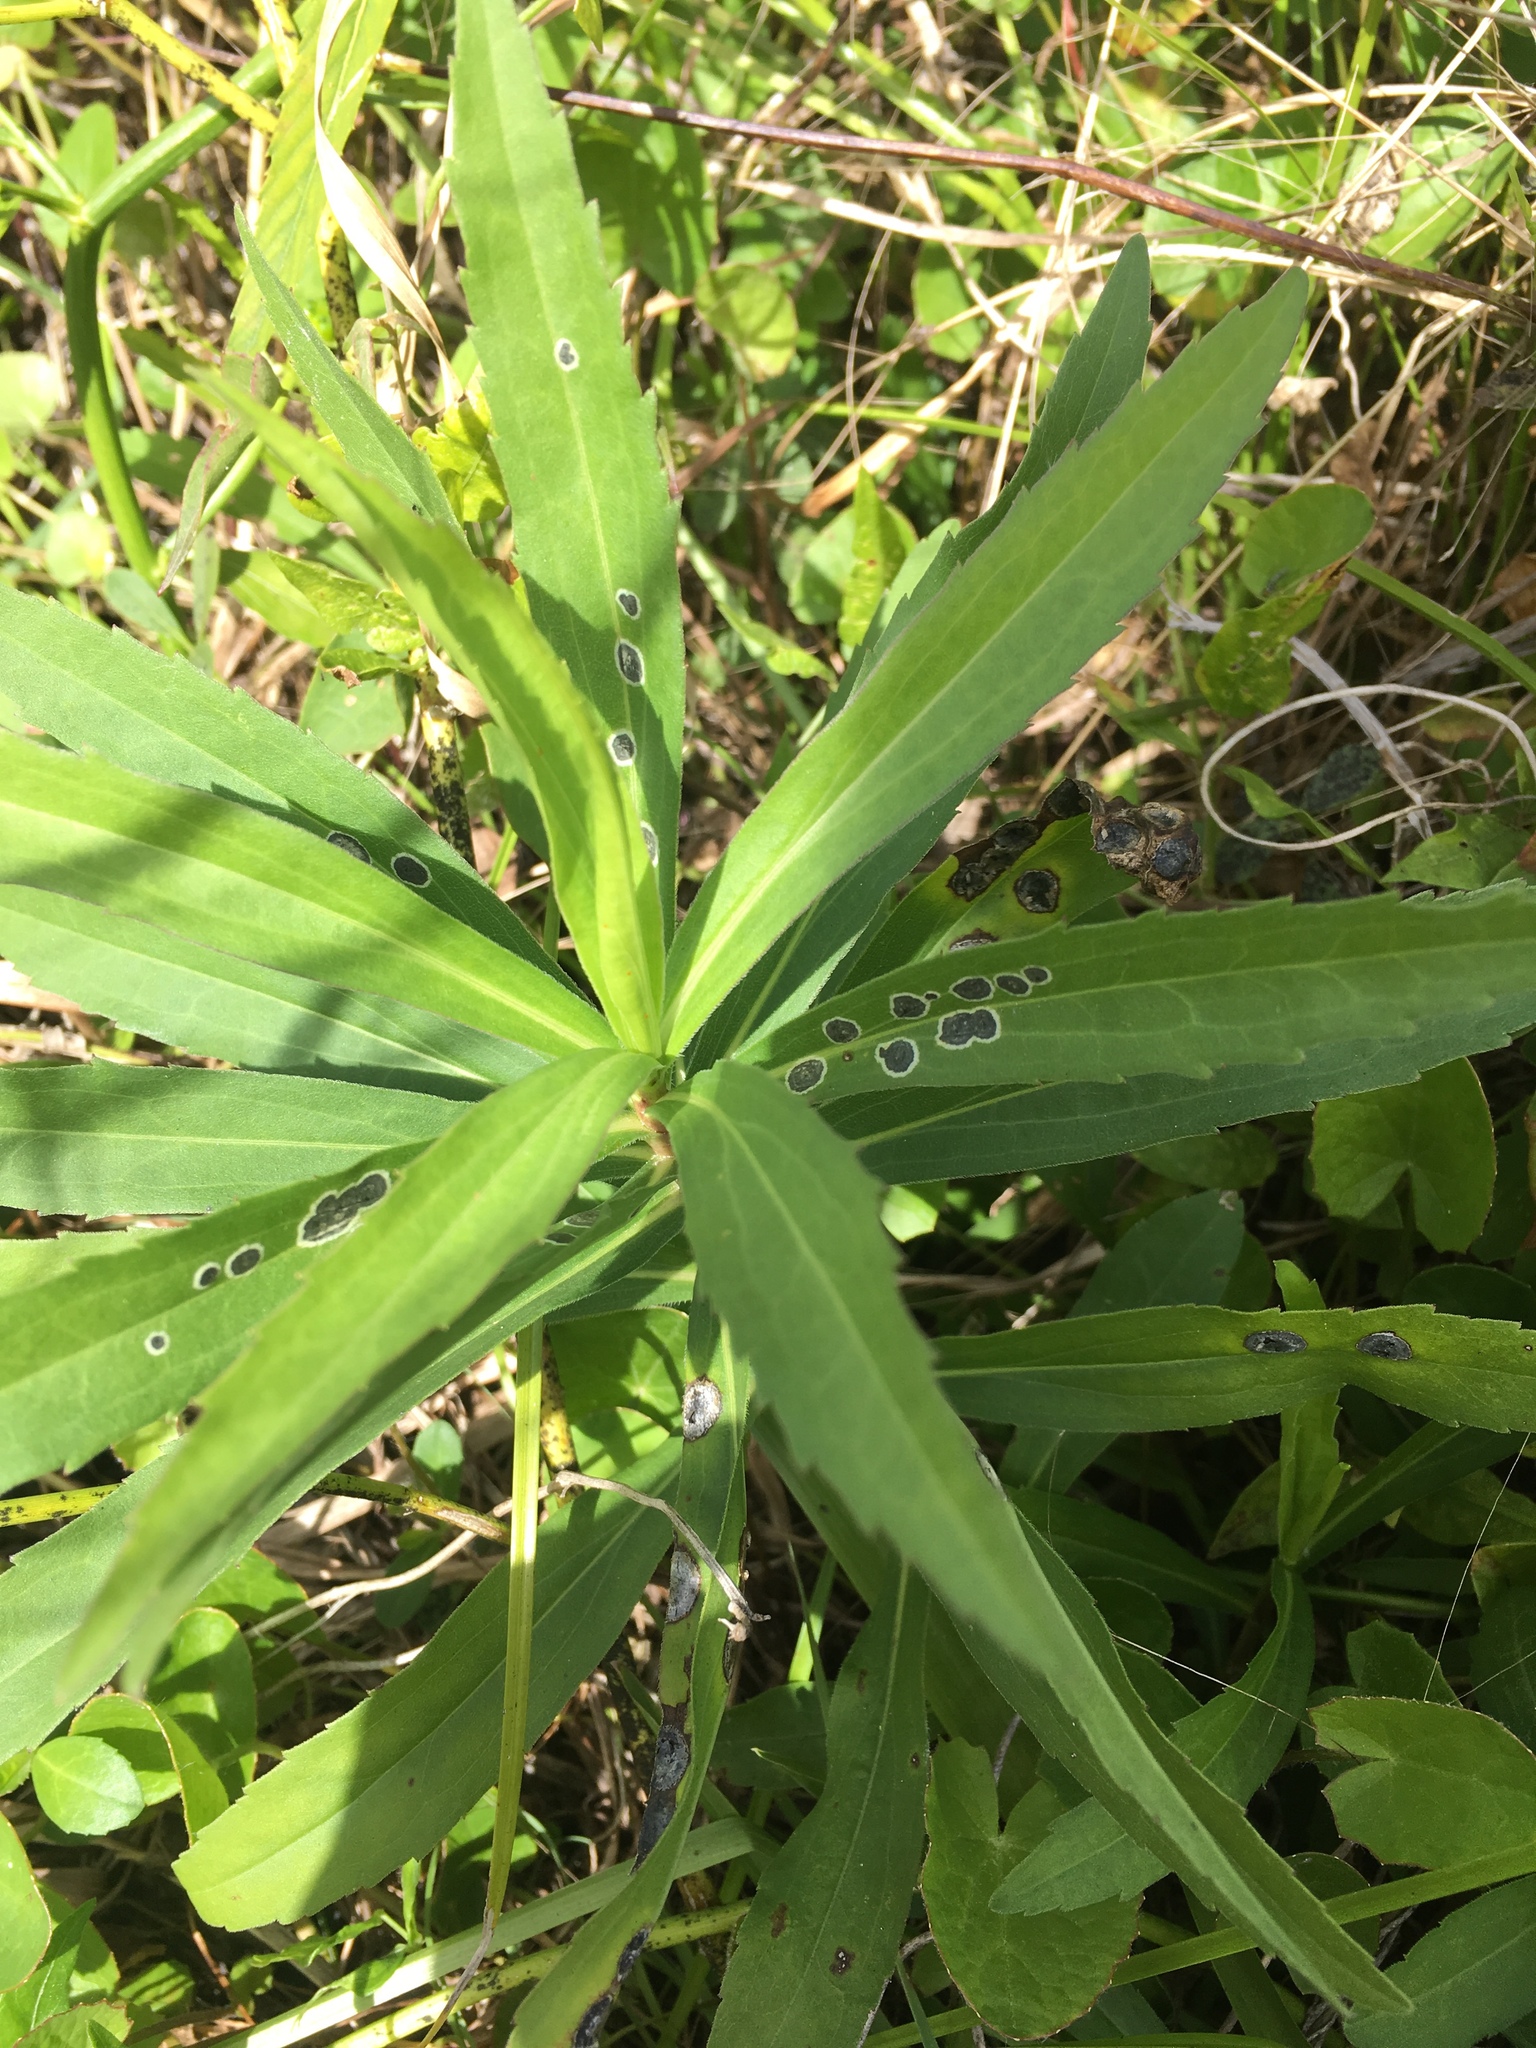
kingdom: Fungi
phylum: Ascomycota
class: Dothideomycetes
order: Botryosphaeriales
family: Botryosphaeriaceae
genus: Botryosphaeria
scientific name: Botryosphaeria dothidea
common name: Asteromyia gall midge fungus
